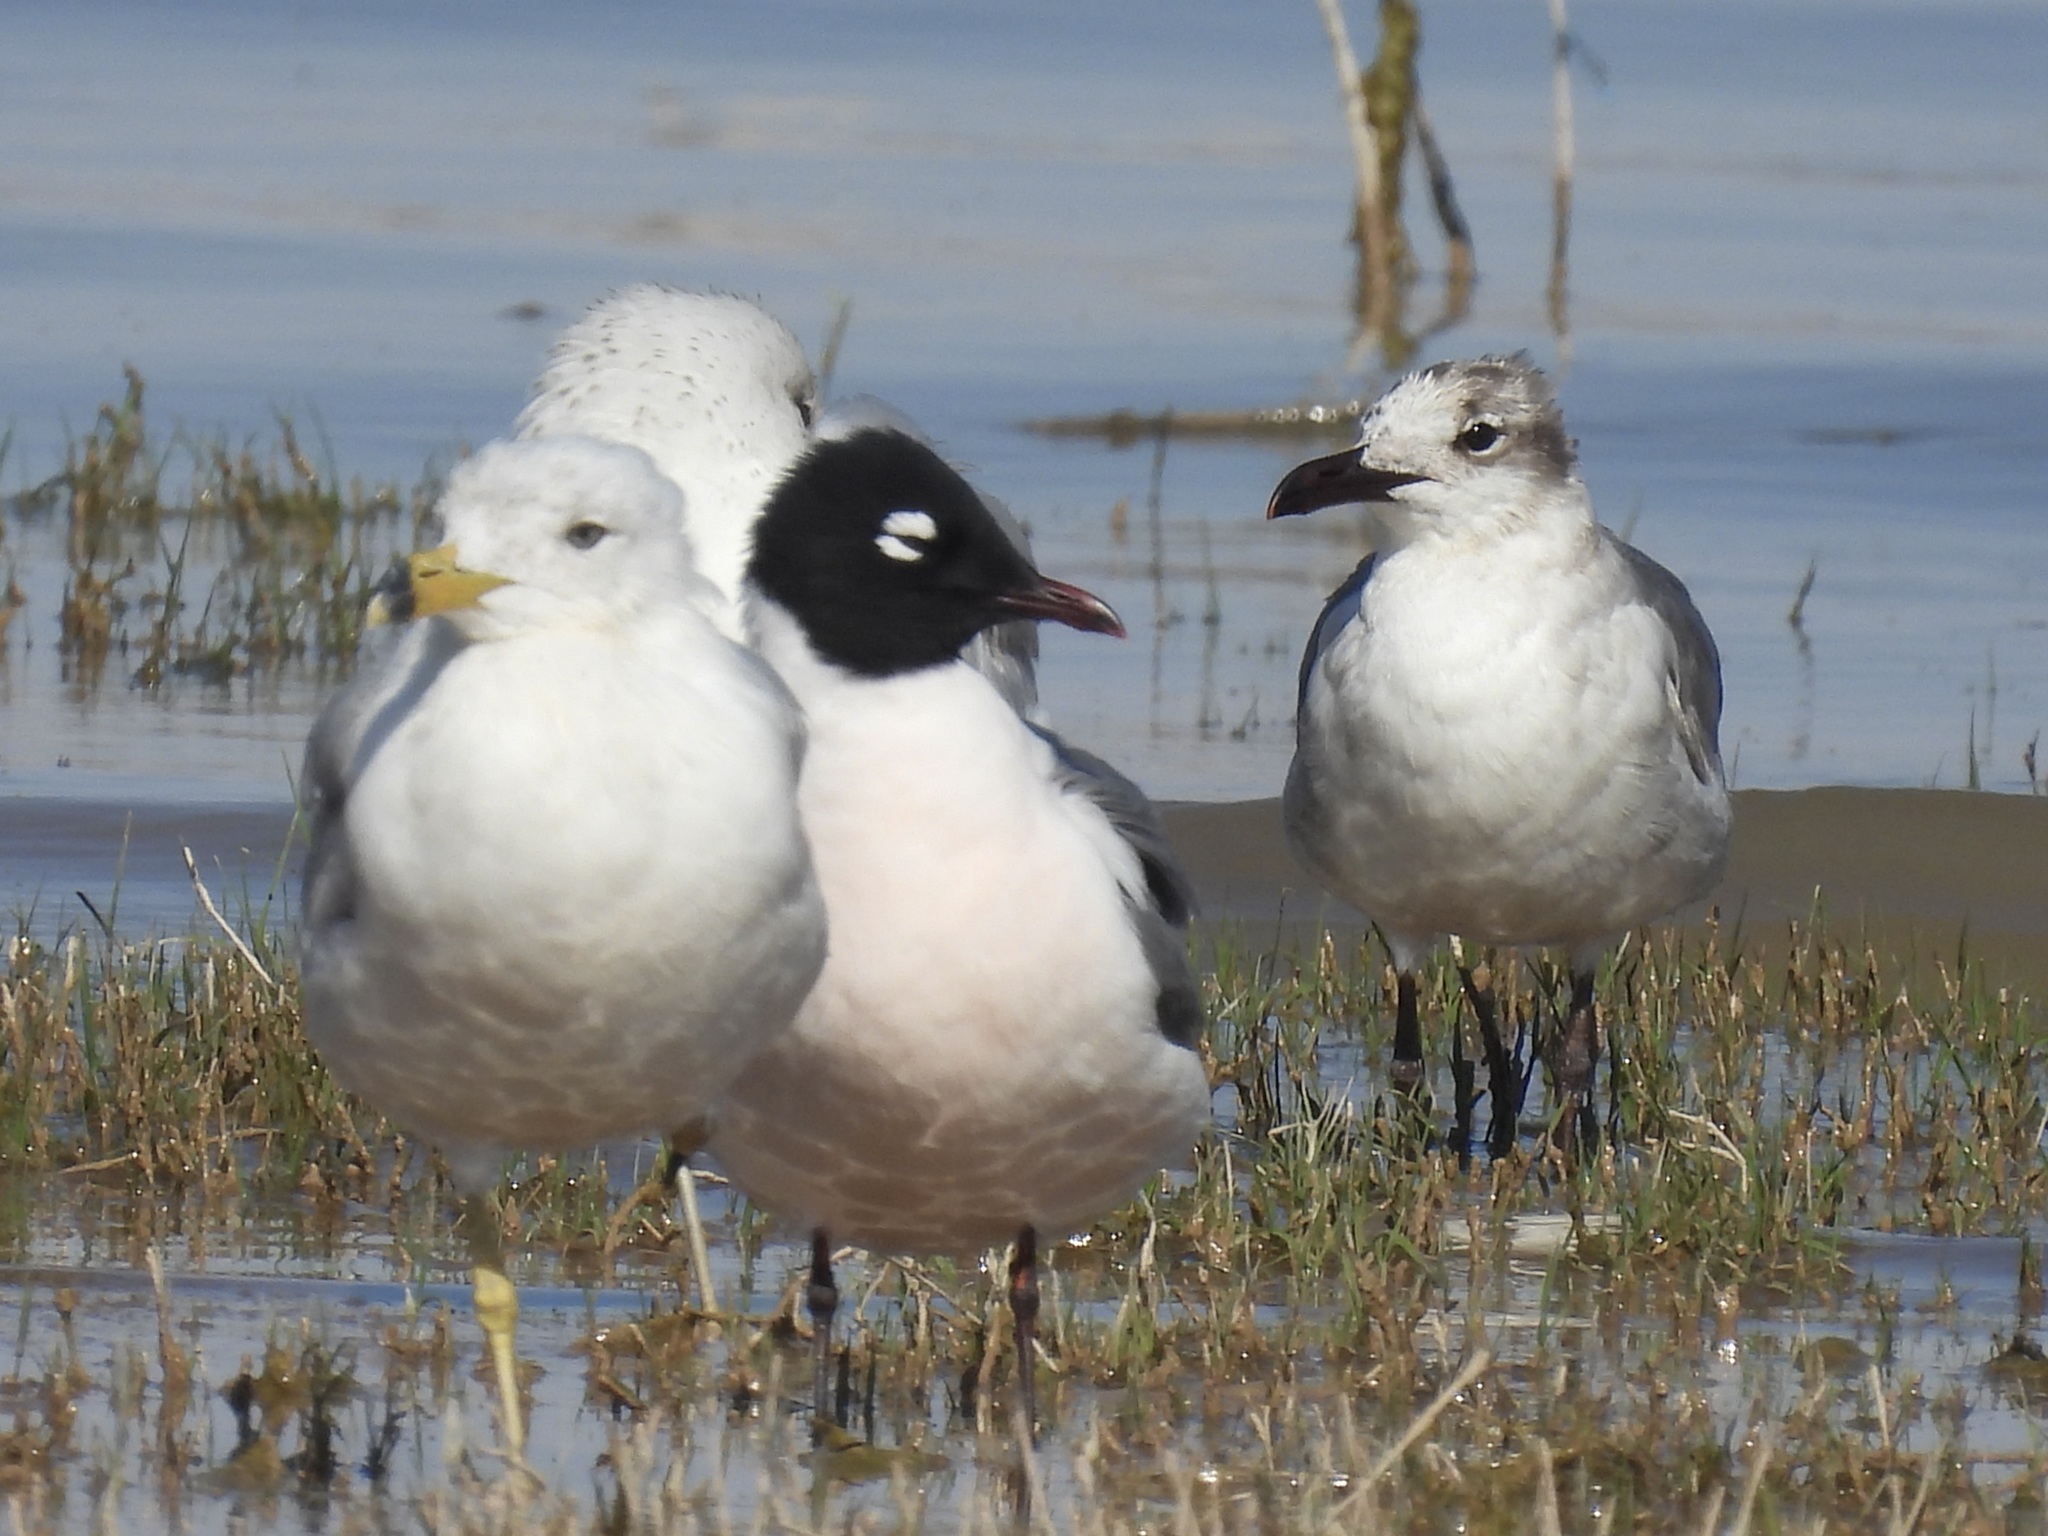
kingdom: Animalia
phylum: Chordata
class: Aves
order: Charadriiformes
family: Laridae
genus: Leucophaeus
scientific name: Leucophaeus atricilla
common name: Laughing gull
